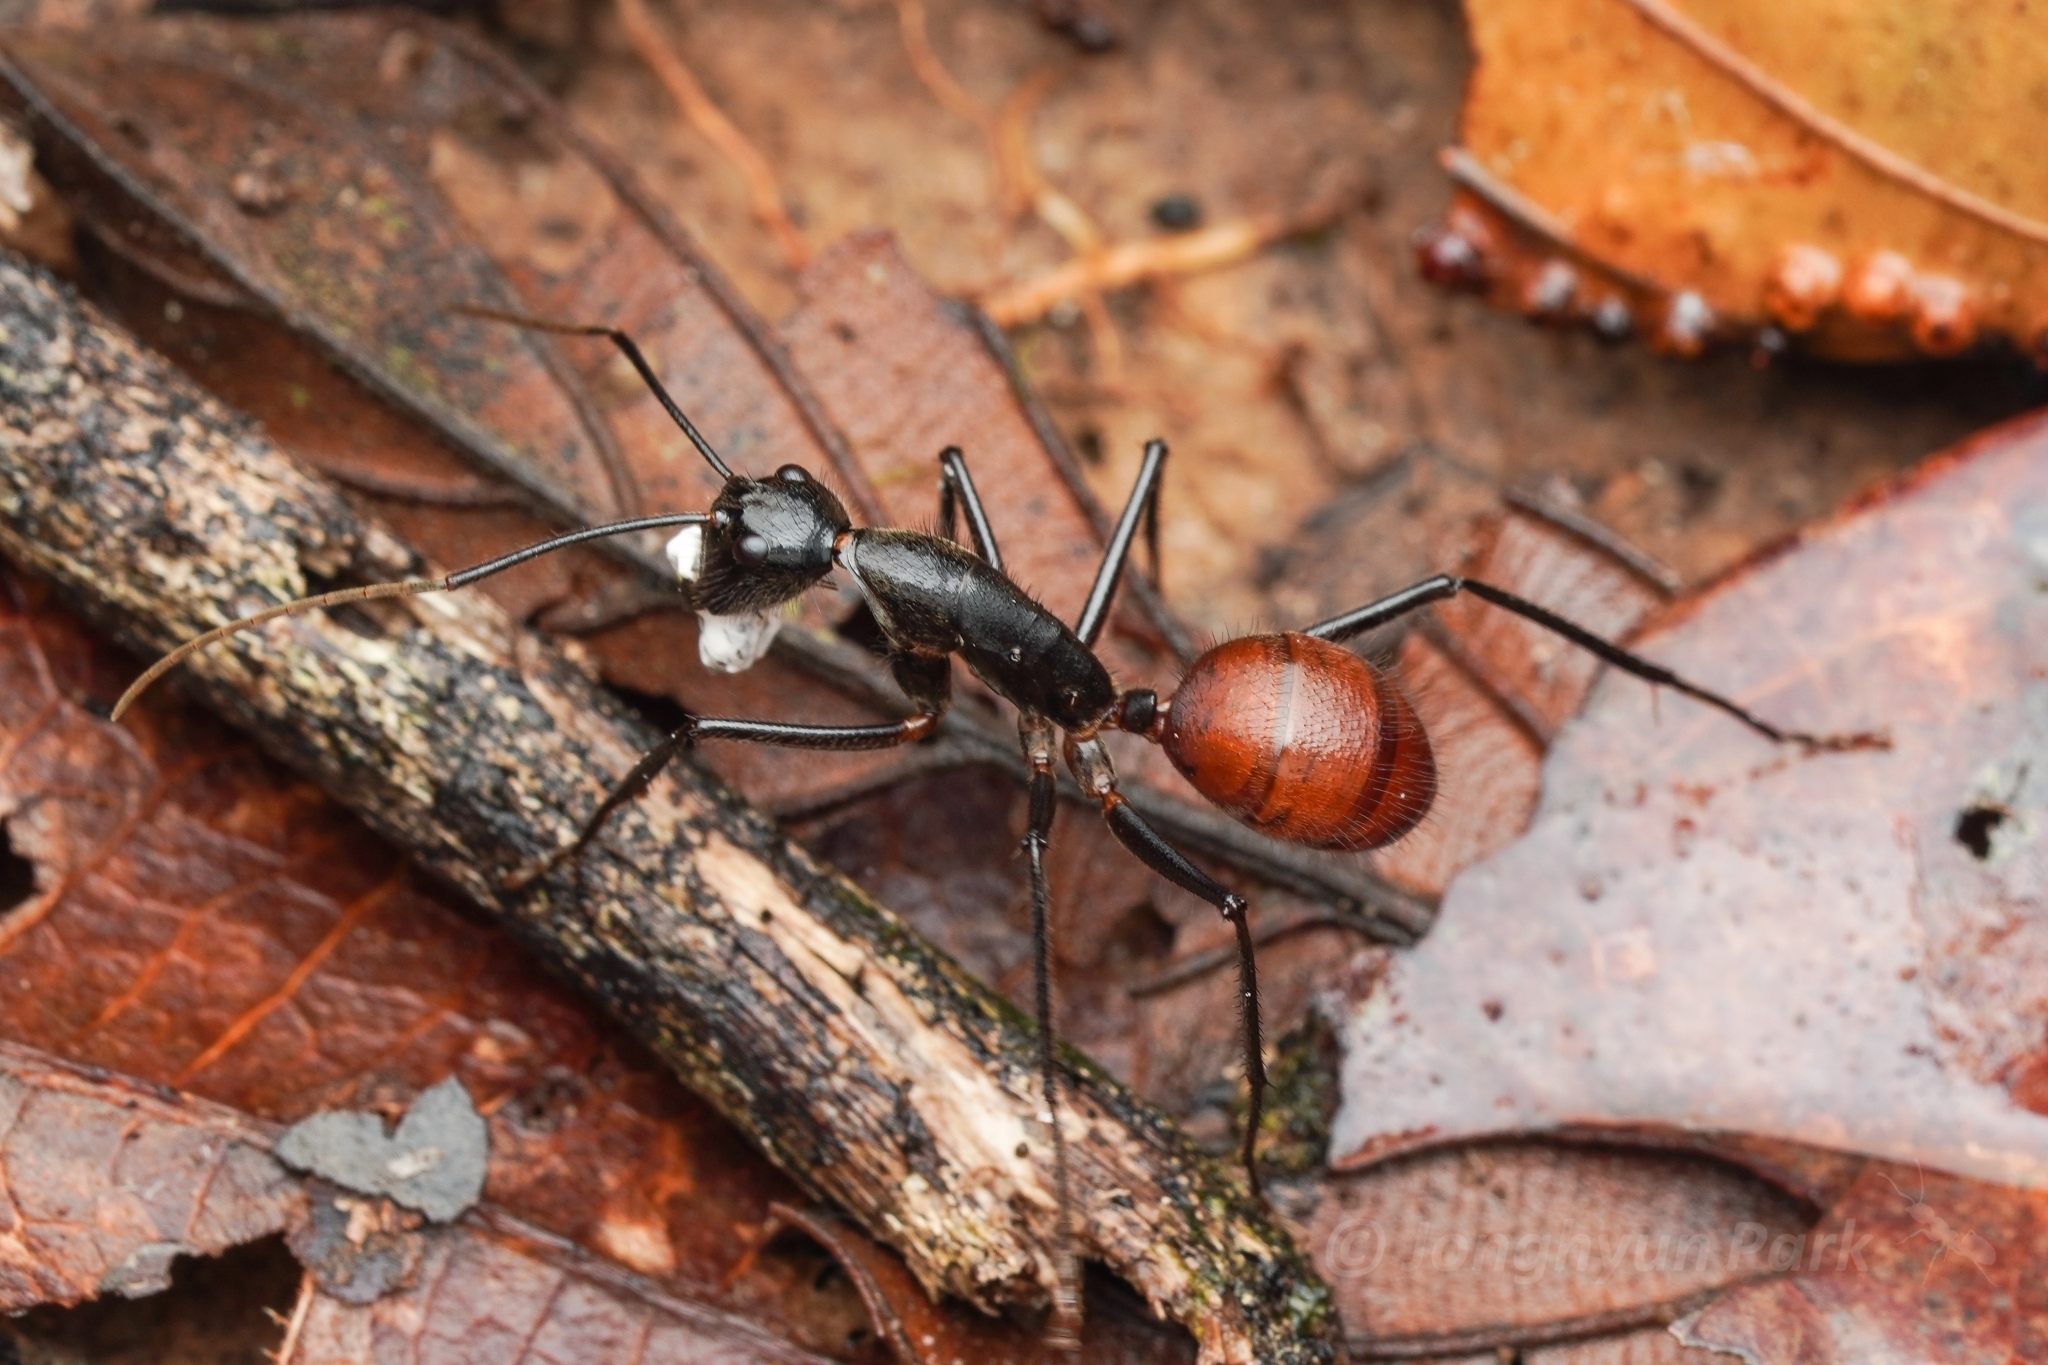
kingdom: Animalia
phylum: Arthropoda
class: Insecta
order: Hymenoptera
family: Formicidae
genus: Dinomyrmex
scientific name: Dinomyrmex
